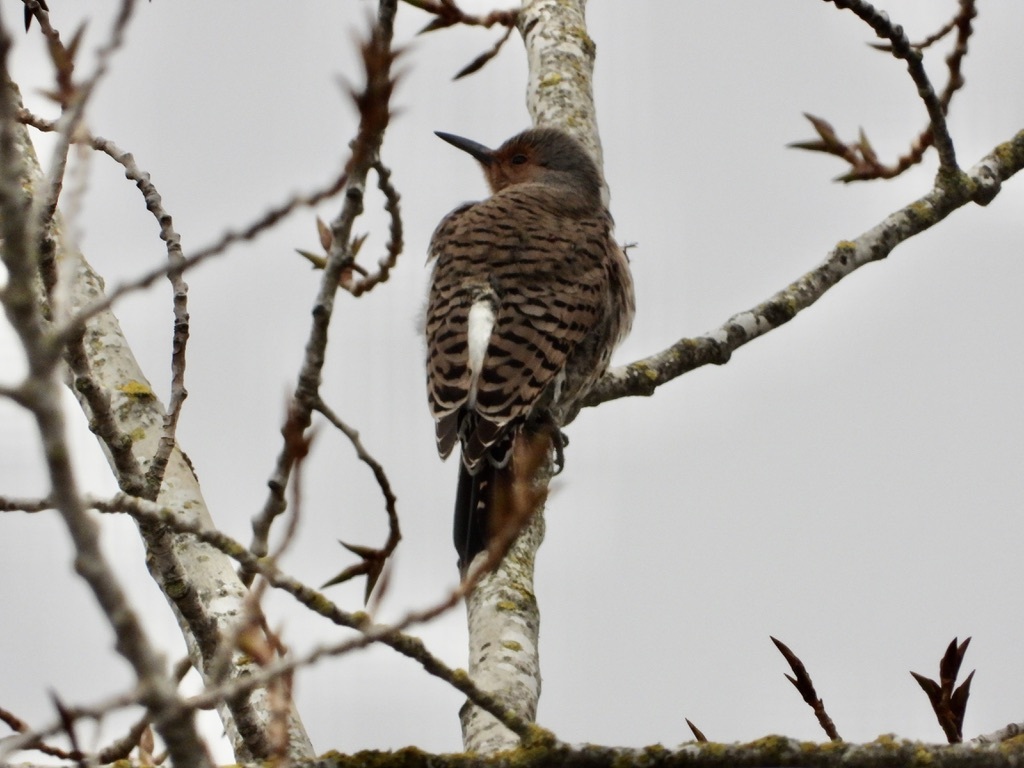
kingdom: Animalia
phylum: Chordata
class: Aves
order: Piciformes
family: Picidae
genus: Colaptes
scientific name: Colaptes auratus
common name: Northern flicker
